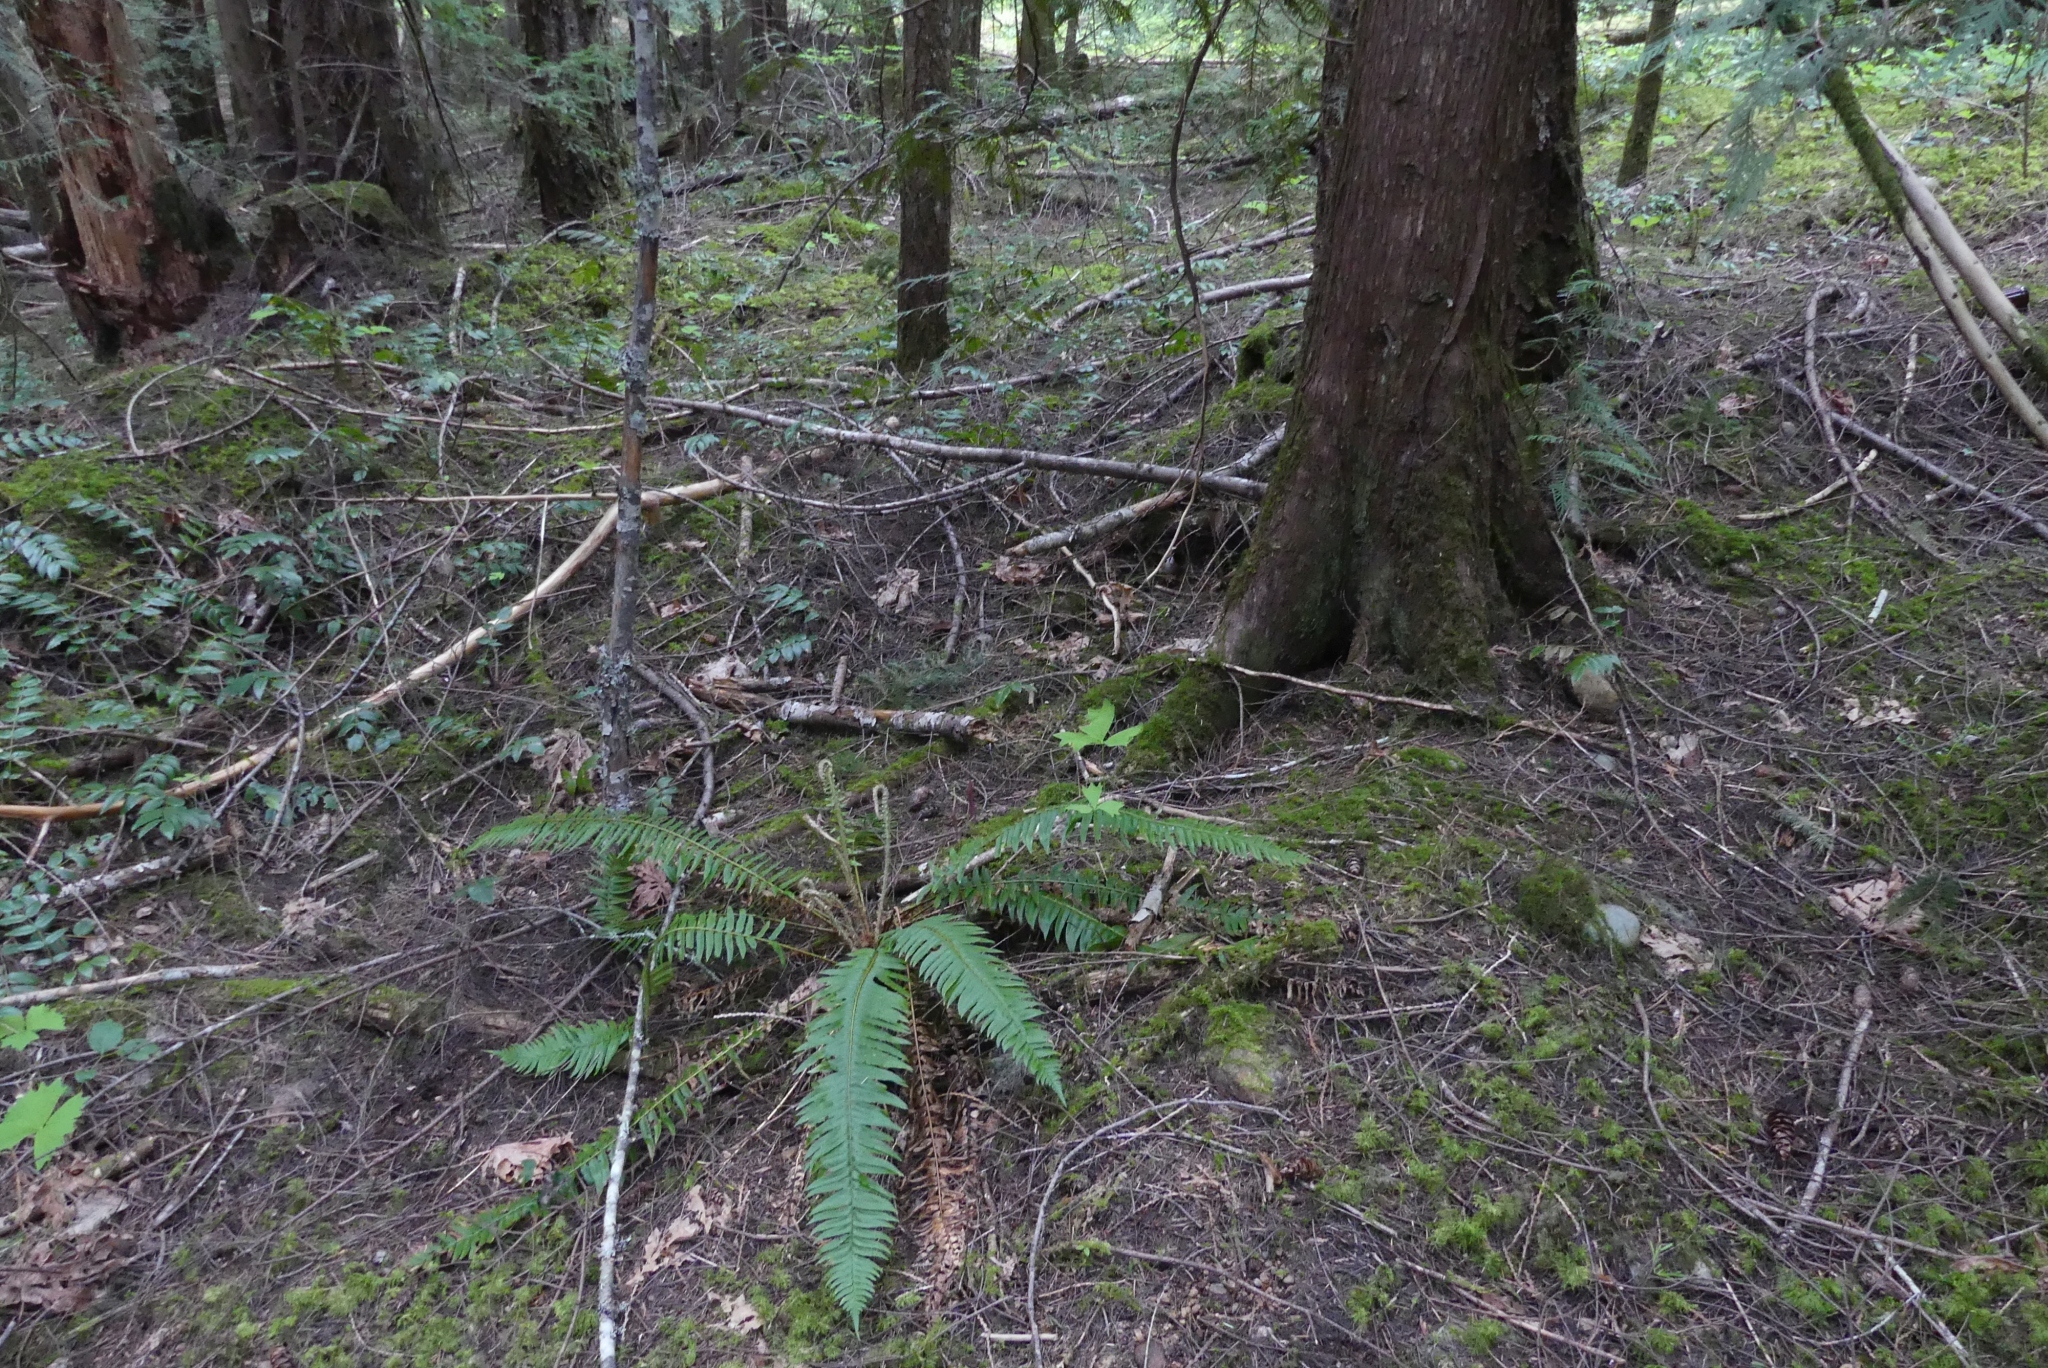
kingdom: Plantae
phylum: Tracheophyta
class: Magnoliopsida
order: Ranunculales
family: Berberidaceae
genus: Achlys
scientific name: Achlys triphylla
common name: Vanilla-leaf
